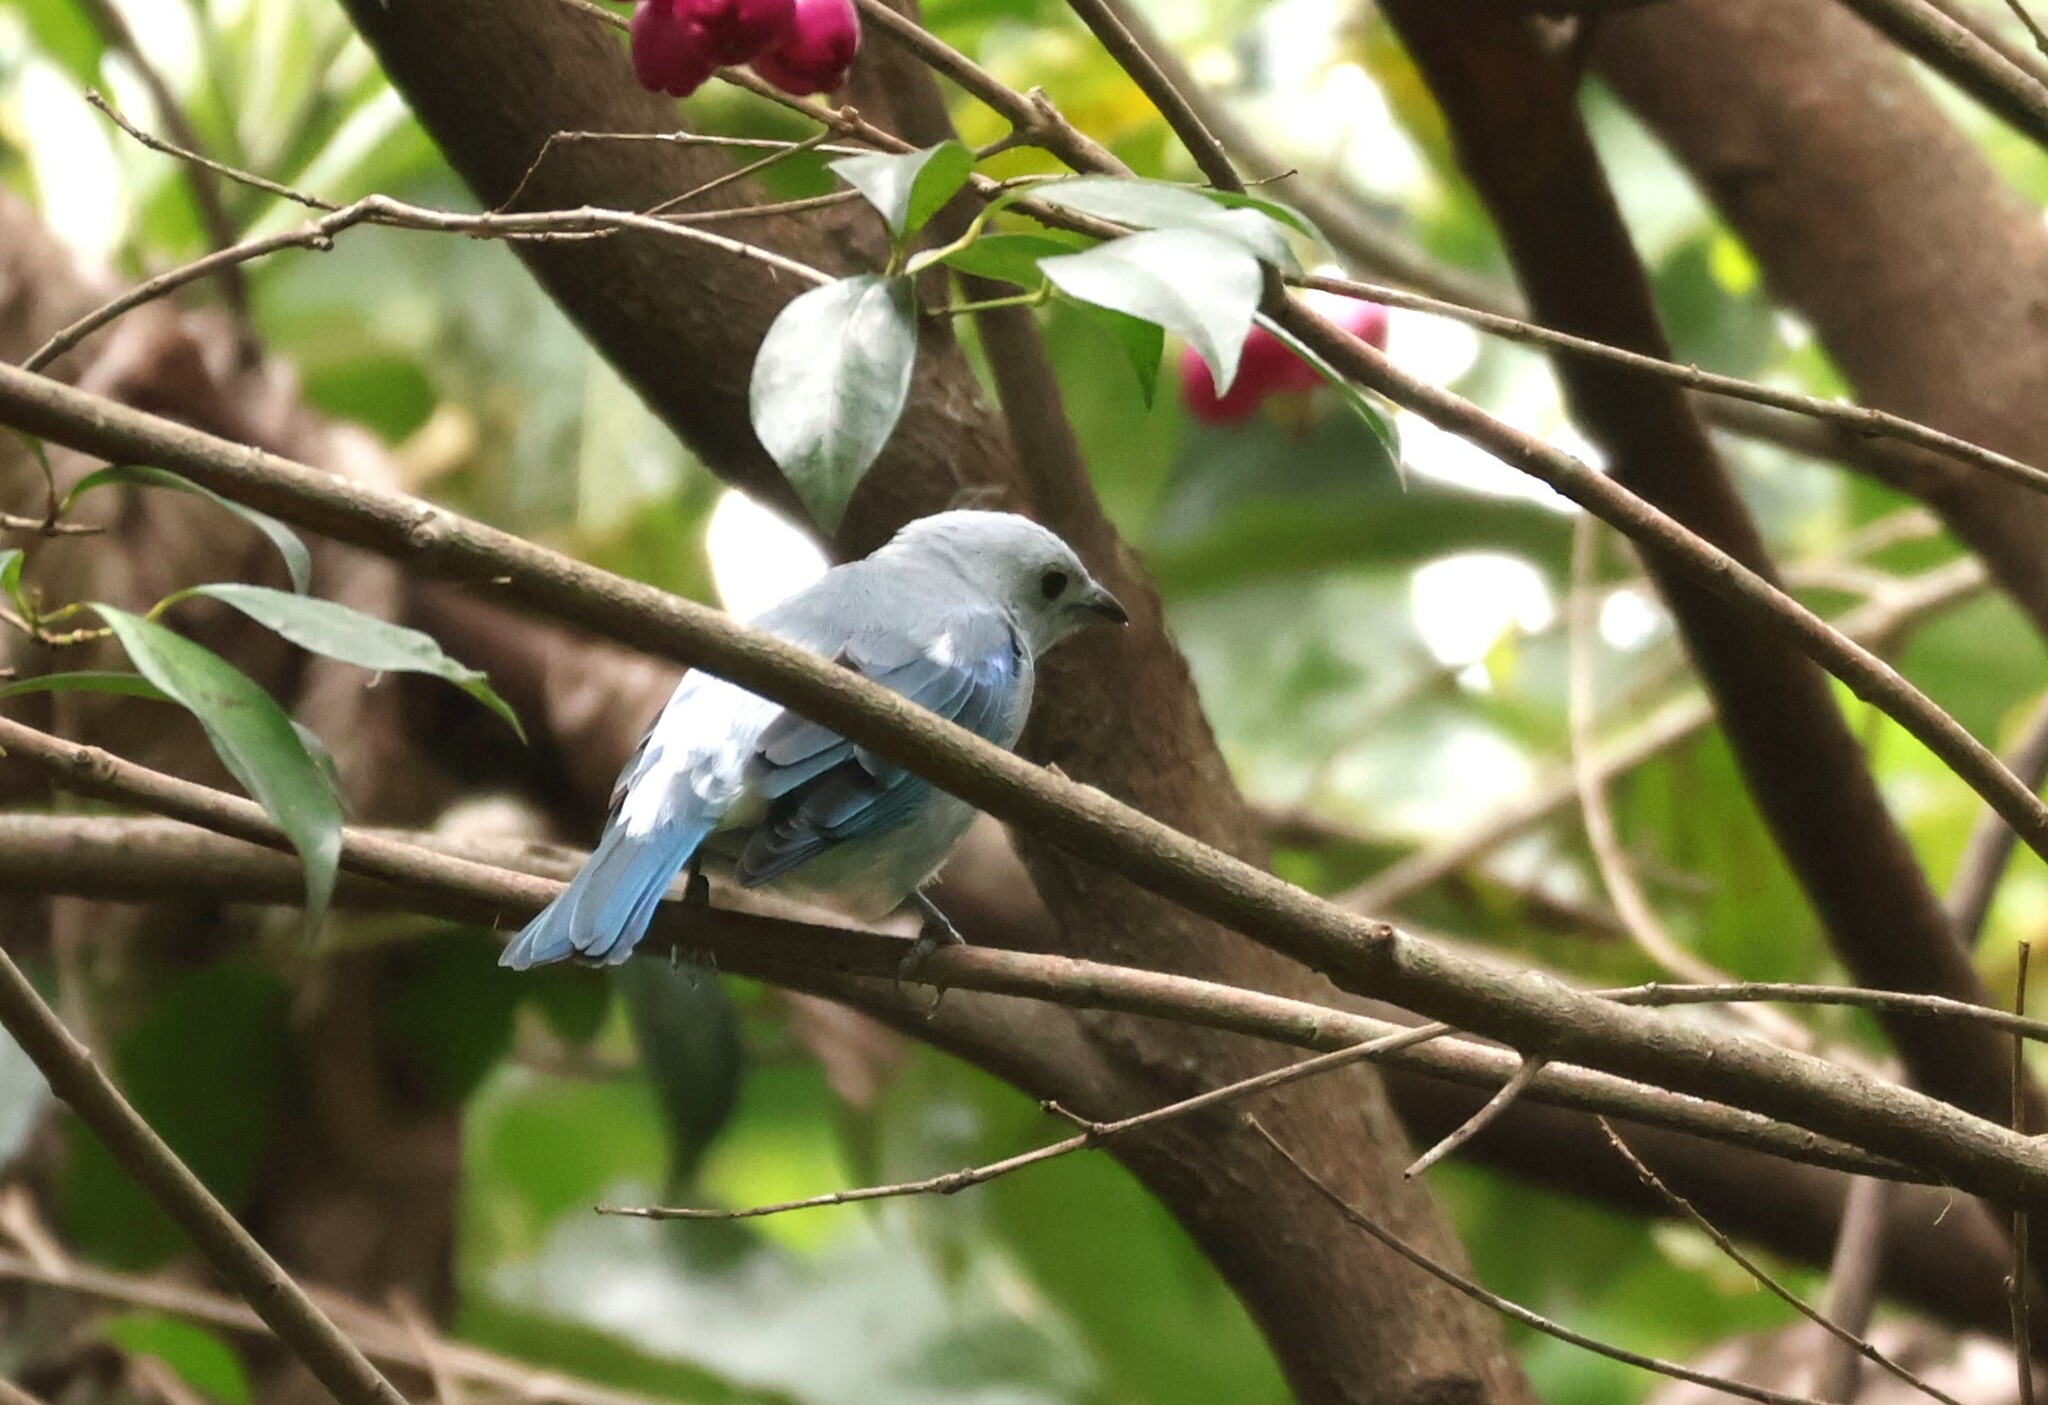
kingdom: Animalia
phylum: Chordata
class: Aves
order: Passeriformes
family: Thraupidae
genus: Thraupis
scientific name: Thraupis episcopus
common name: Blue-grey tanager
